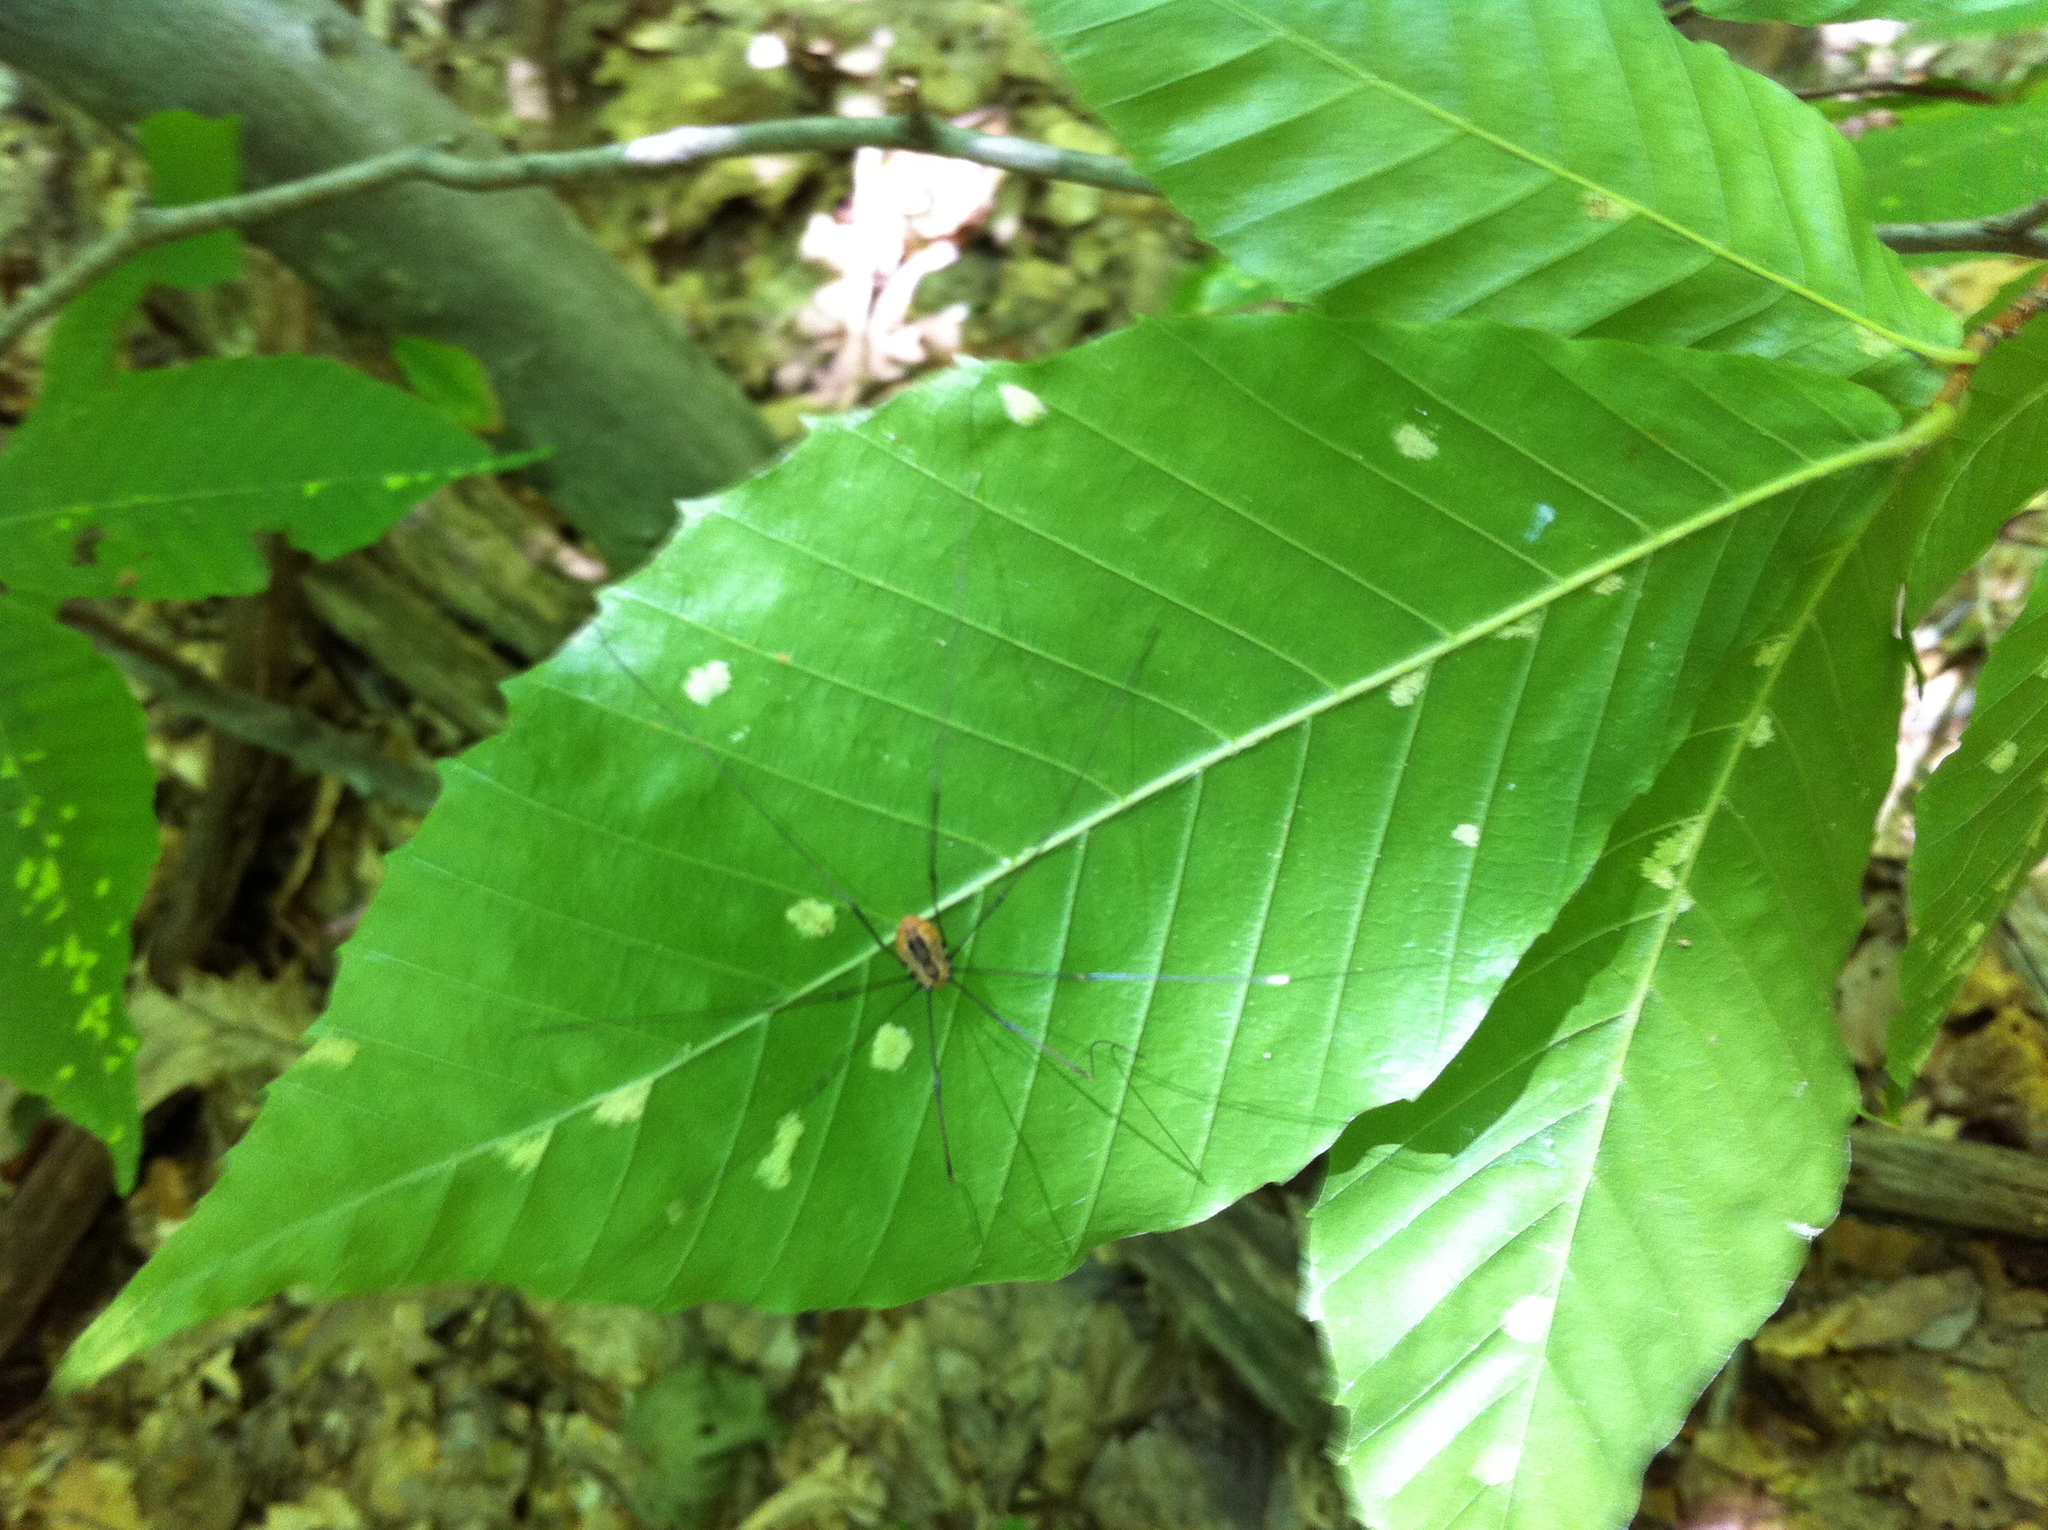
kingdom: Plantae
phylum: Tracheophyta
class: Magnoliopsida
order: Fagales
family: Fagaceae
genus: Fagus
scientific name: Fagus grandifolia
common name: American beech
